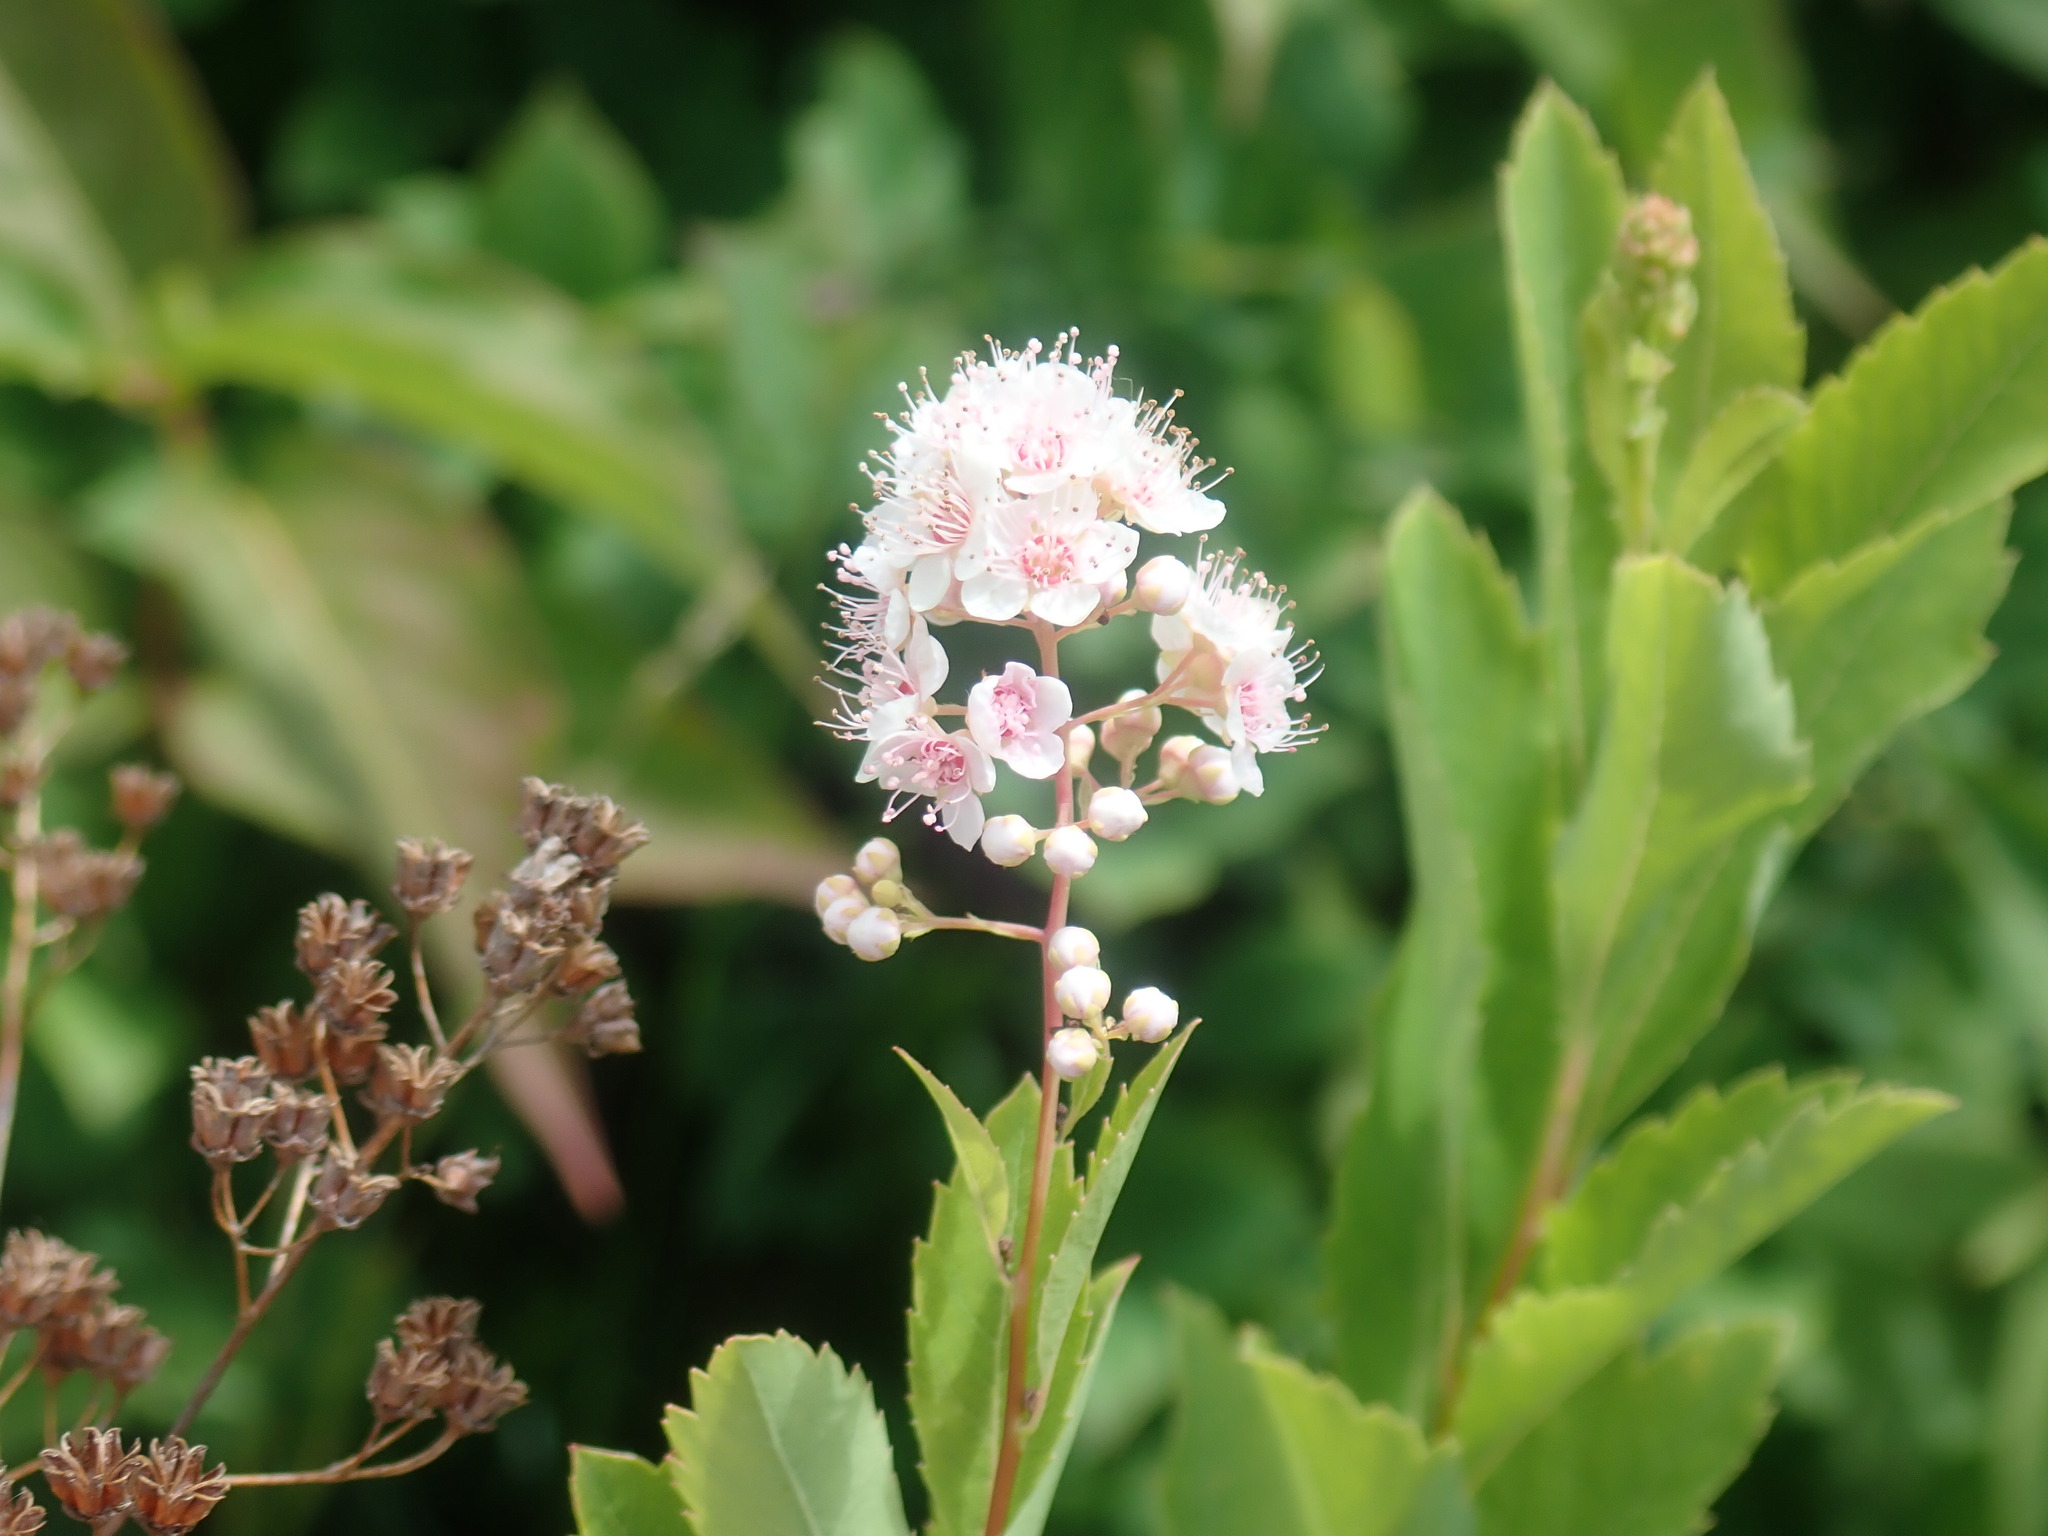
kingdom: Plantae
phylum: Tracheophyta
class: Magnoliopsida
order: Rosales
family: Rosaceae
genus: Spiraea
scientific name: Spiraea alba
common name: Pale bridewort
